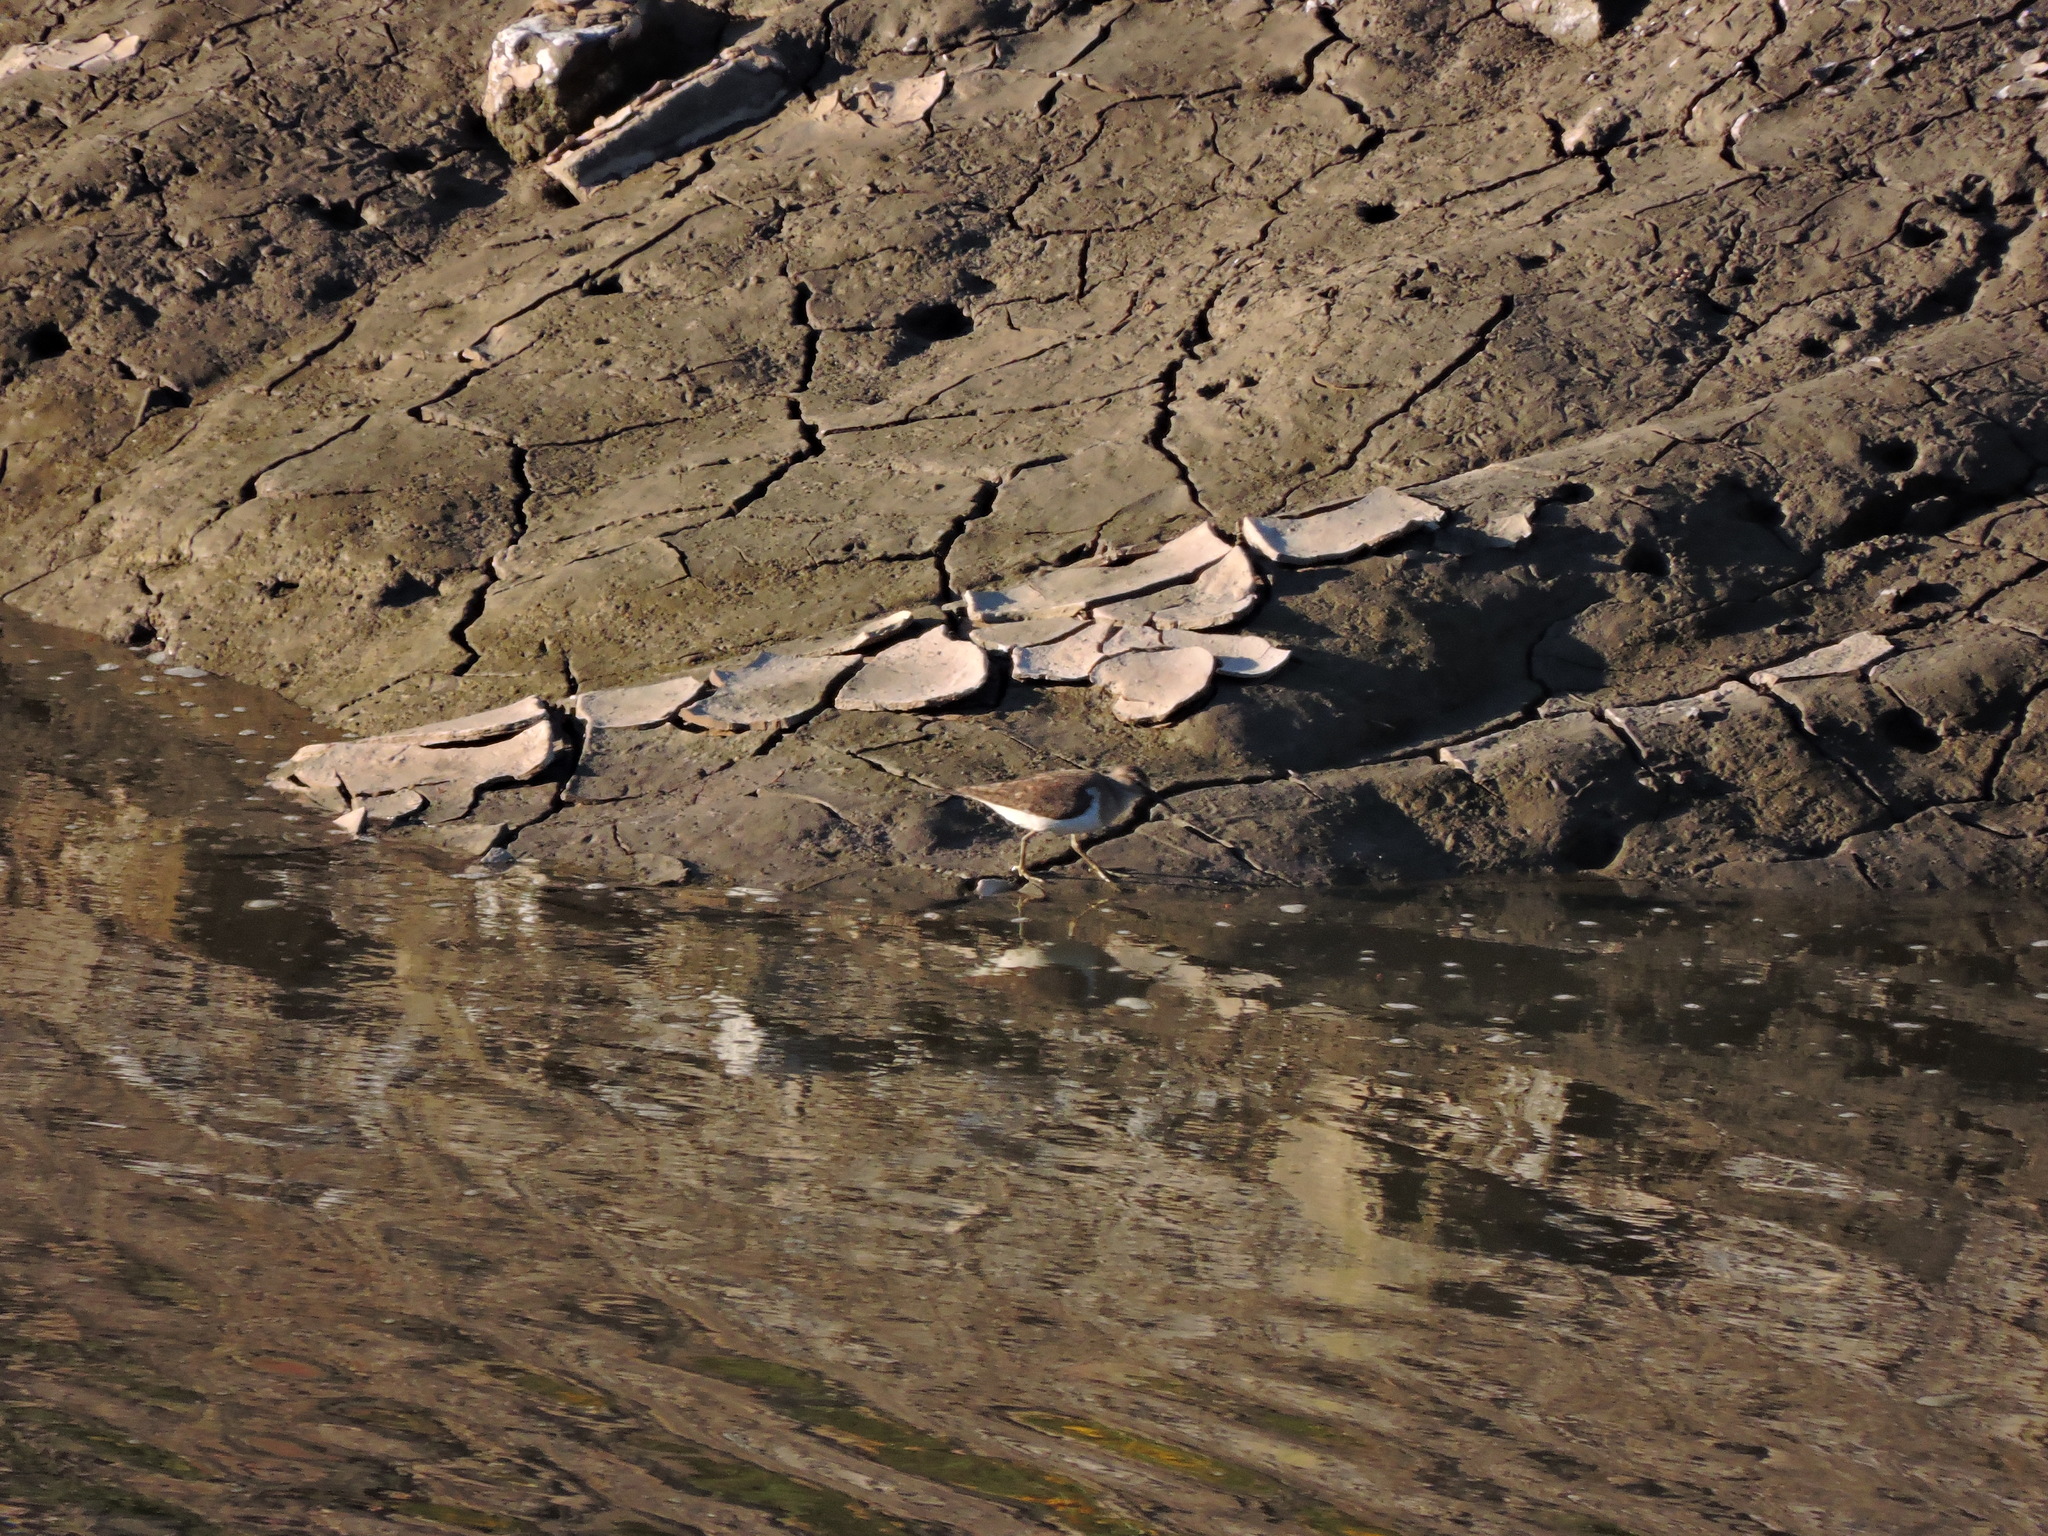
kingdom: Animalia
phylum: Chordata
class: Aves
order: Charadriiformes
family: Scolopacidae
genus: Actitis
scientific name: Actitis hypoleucos
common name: Common sandpiper
